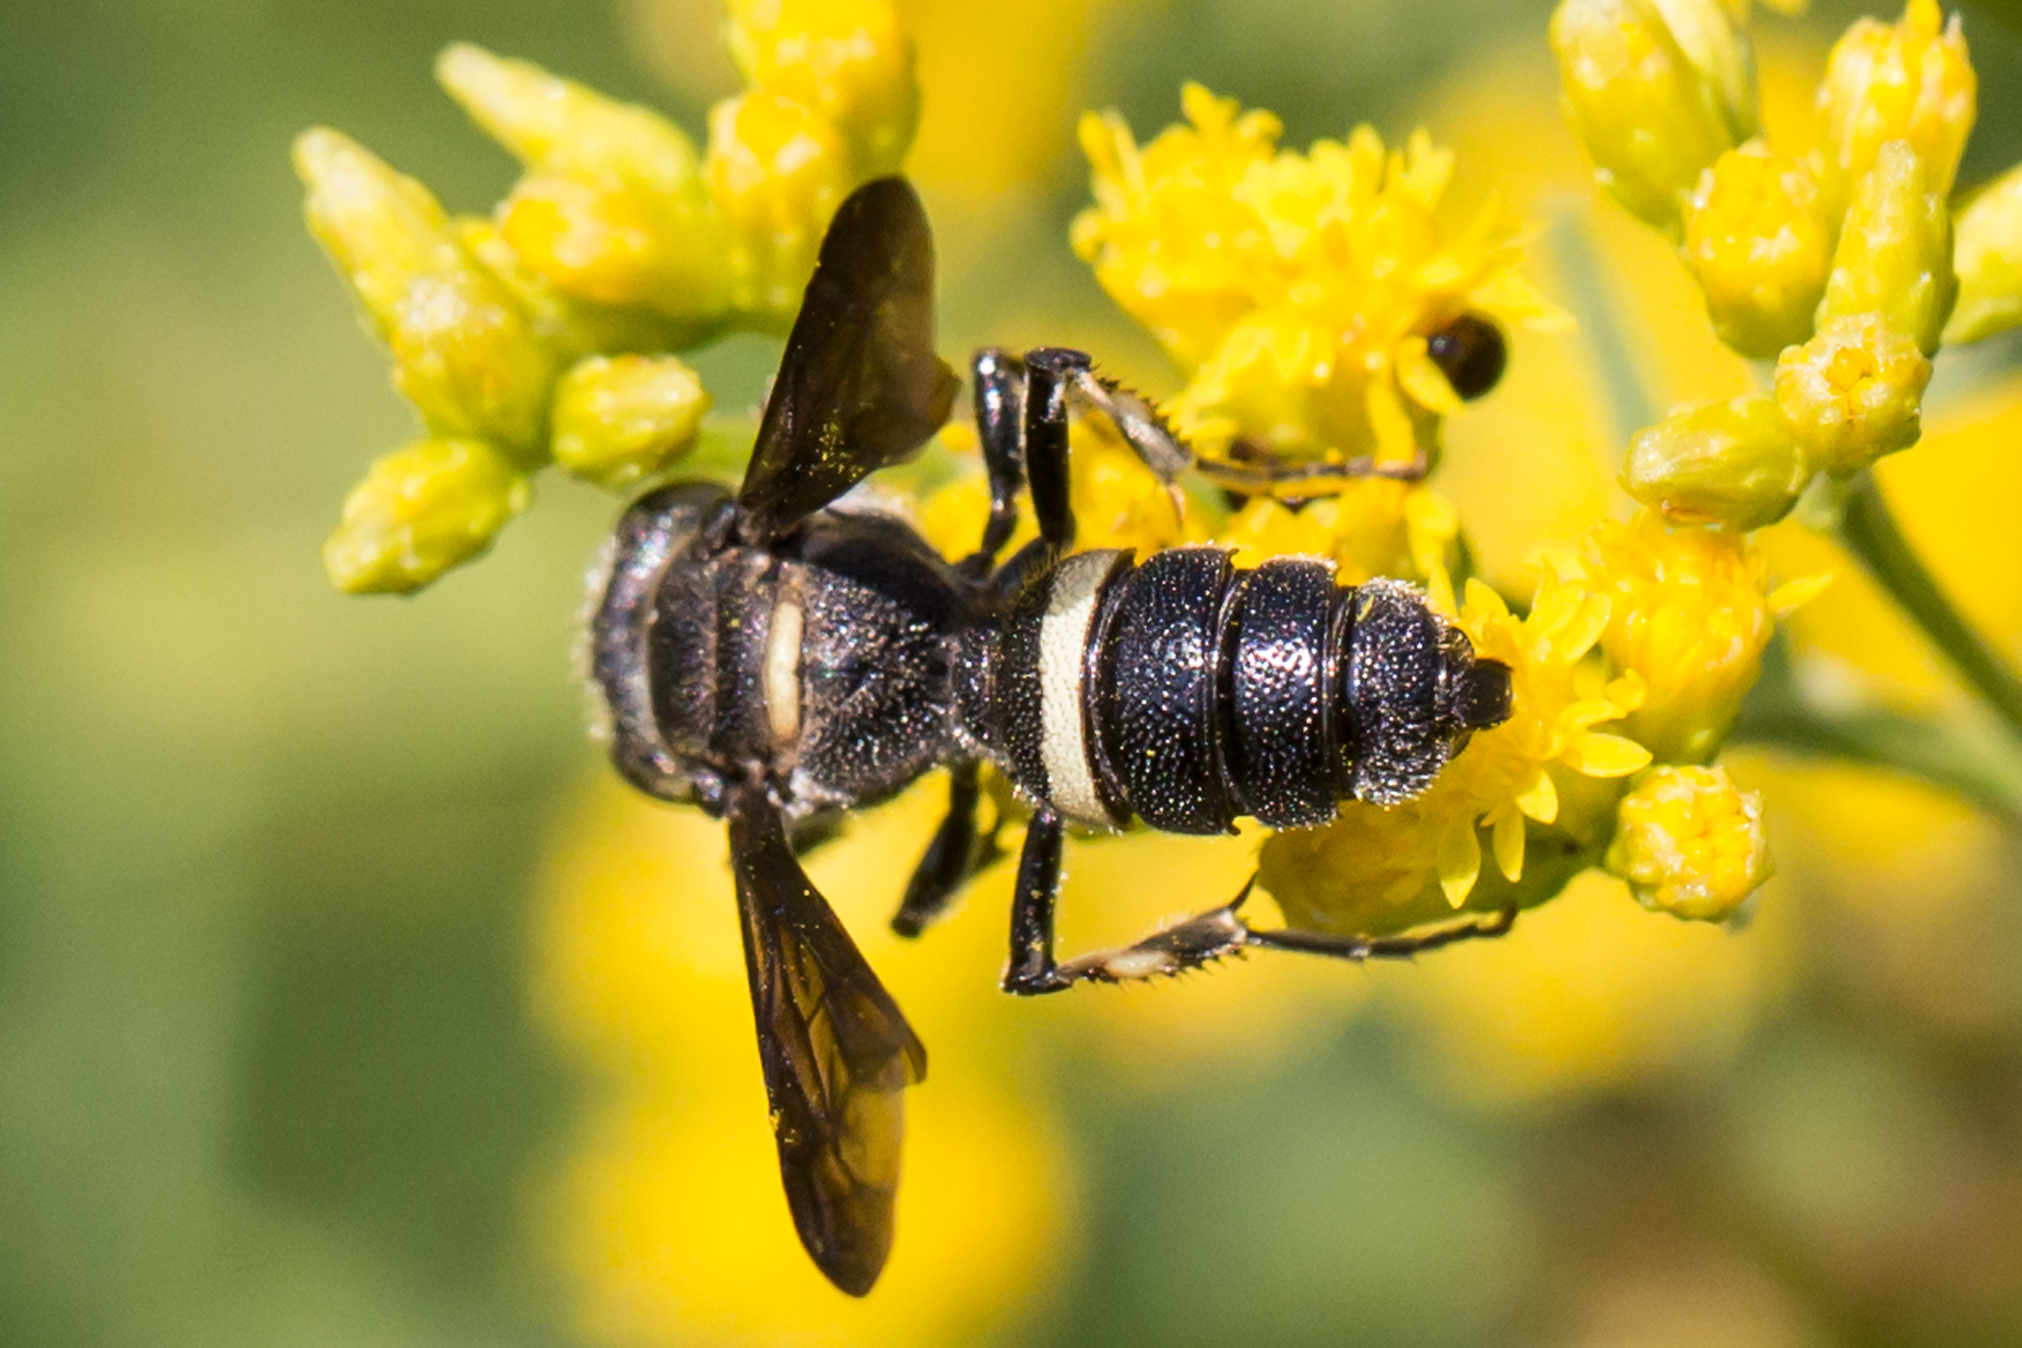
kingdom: Animalia
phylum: Arthropoda
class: Insecta
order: Hymenoptera
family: Crabronidae
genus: Cerceris
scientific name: Cerceris fumipennis
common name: Smokey-winged beetle bandit wasp
